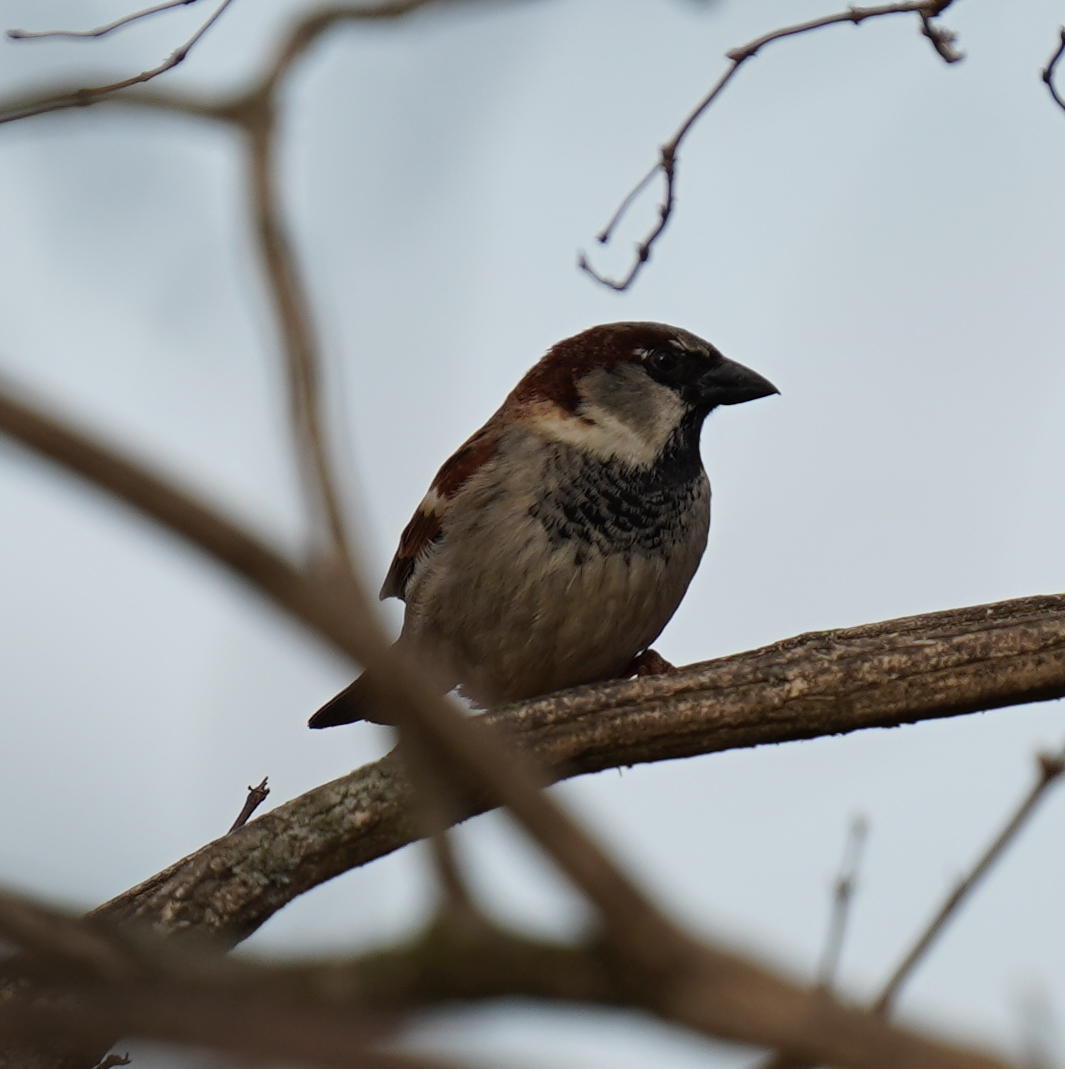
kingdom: Animalia
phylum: Chordata
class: Aves
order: Passeriformes
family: Passeridae
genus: Passer
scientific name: Passer domesticus
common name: House sparrow
